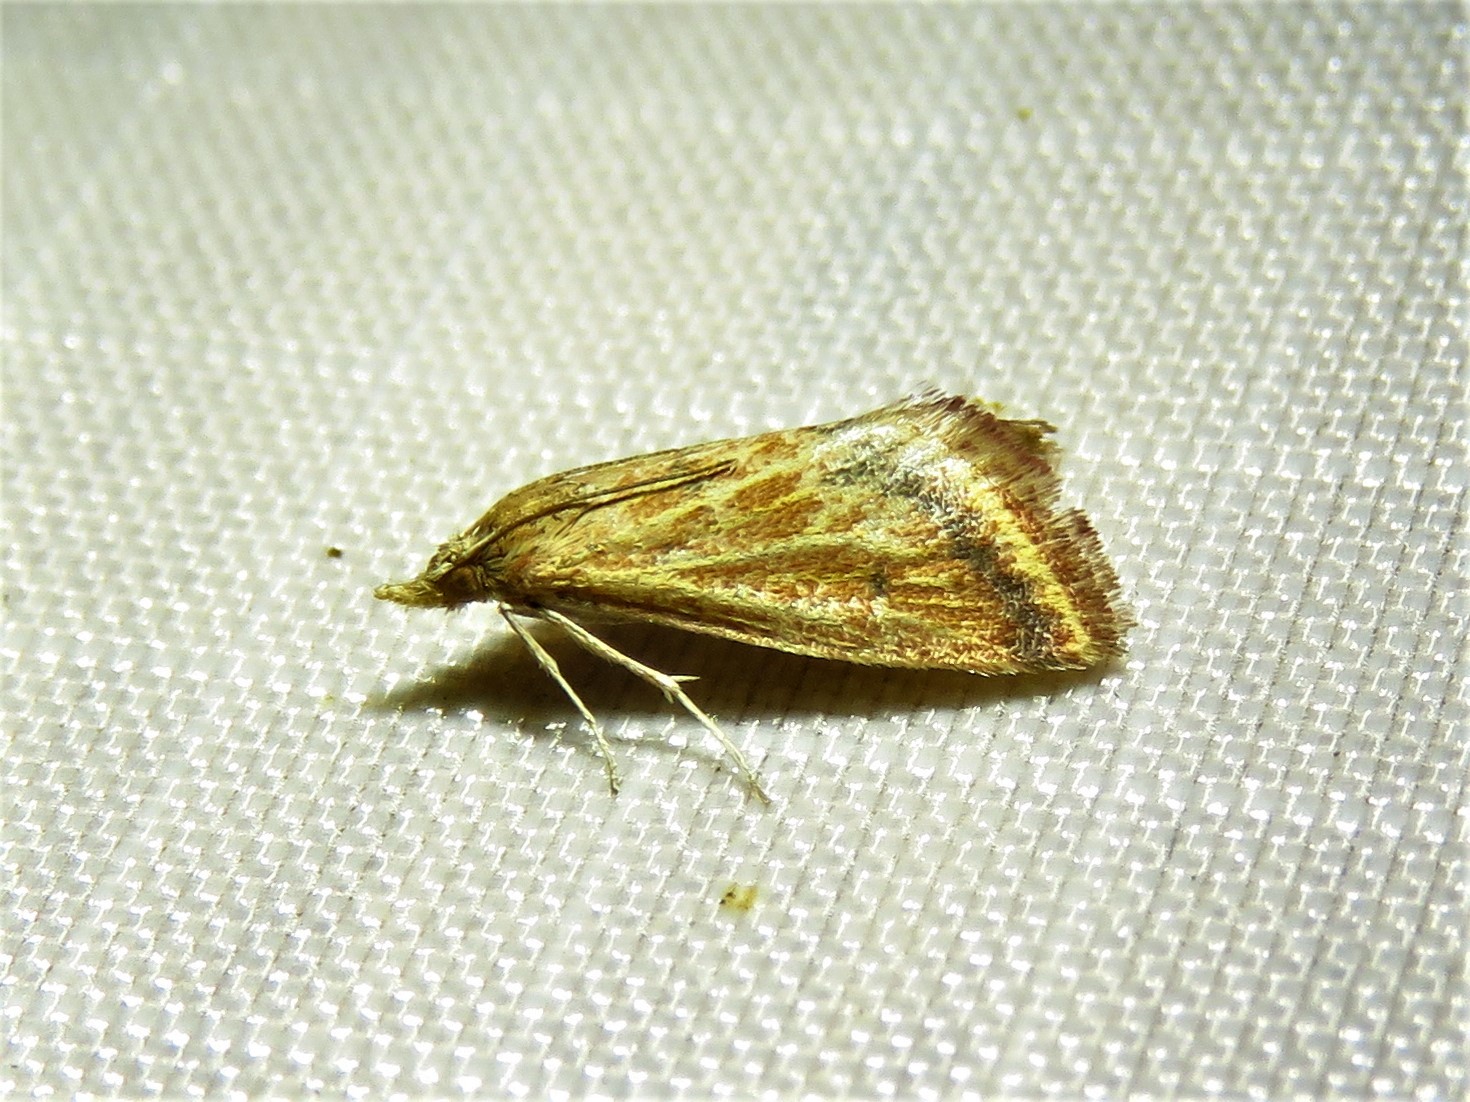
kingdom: Animalia
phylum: Arthropoda
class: Insecta
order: Lepidoptera
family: Crambidae
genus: Microtheoris
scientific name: Microtheoris ophionalis
